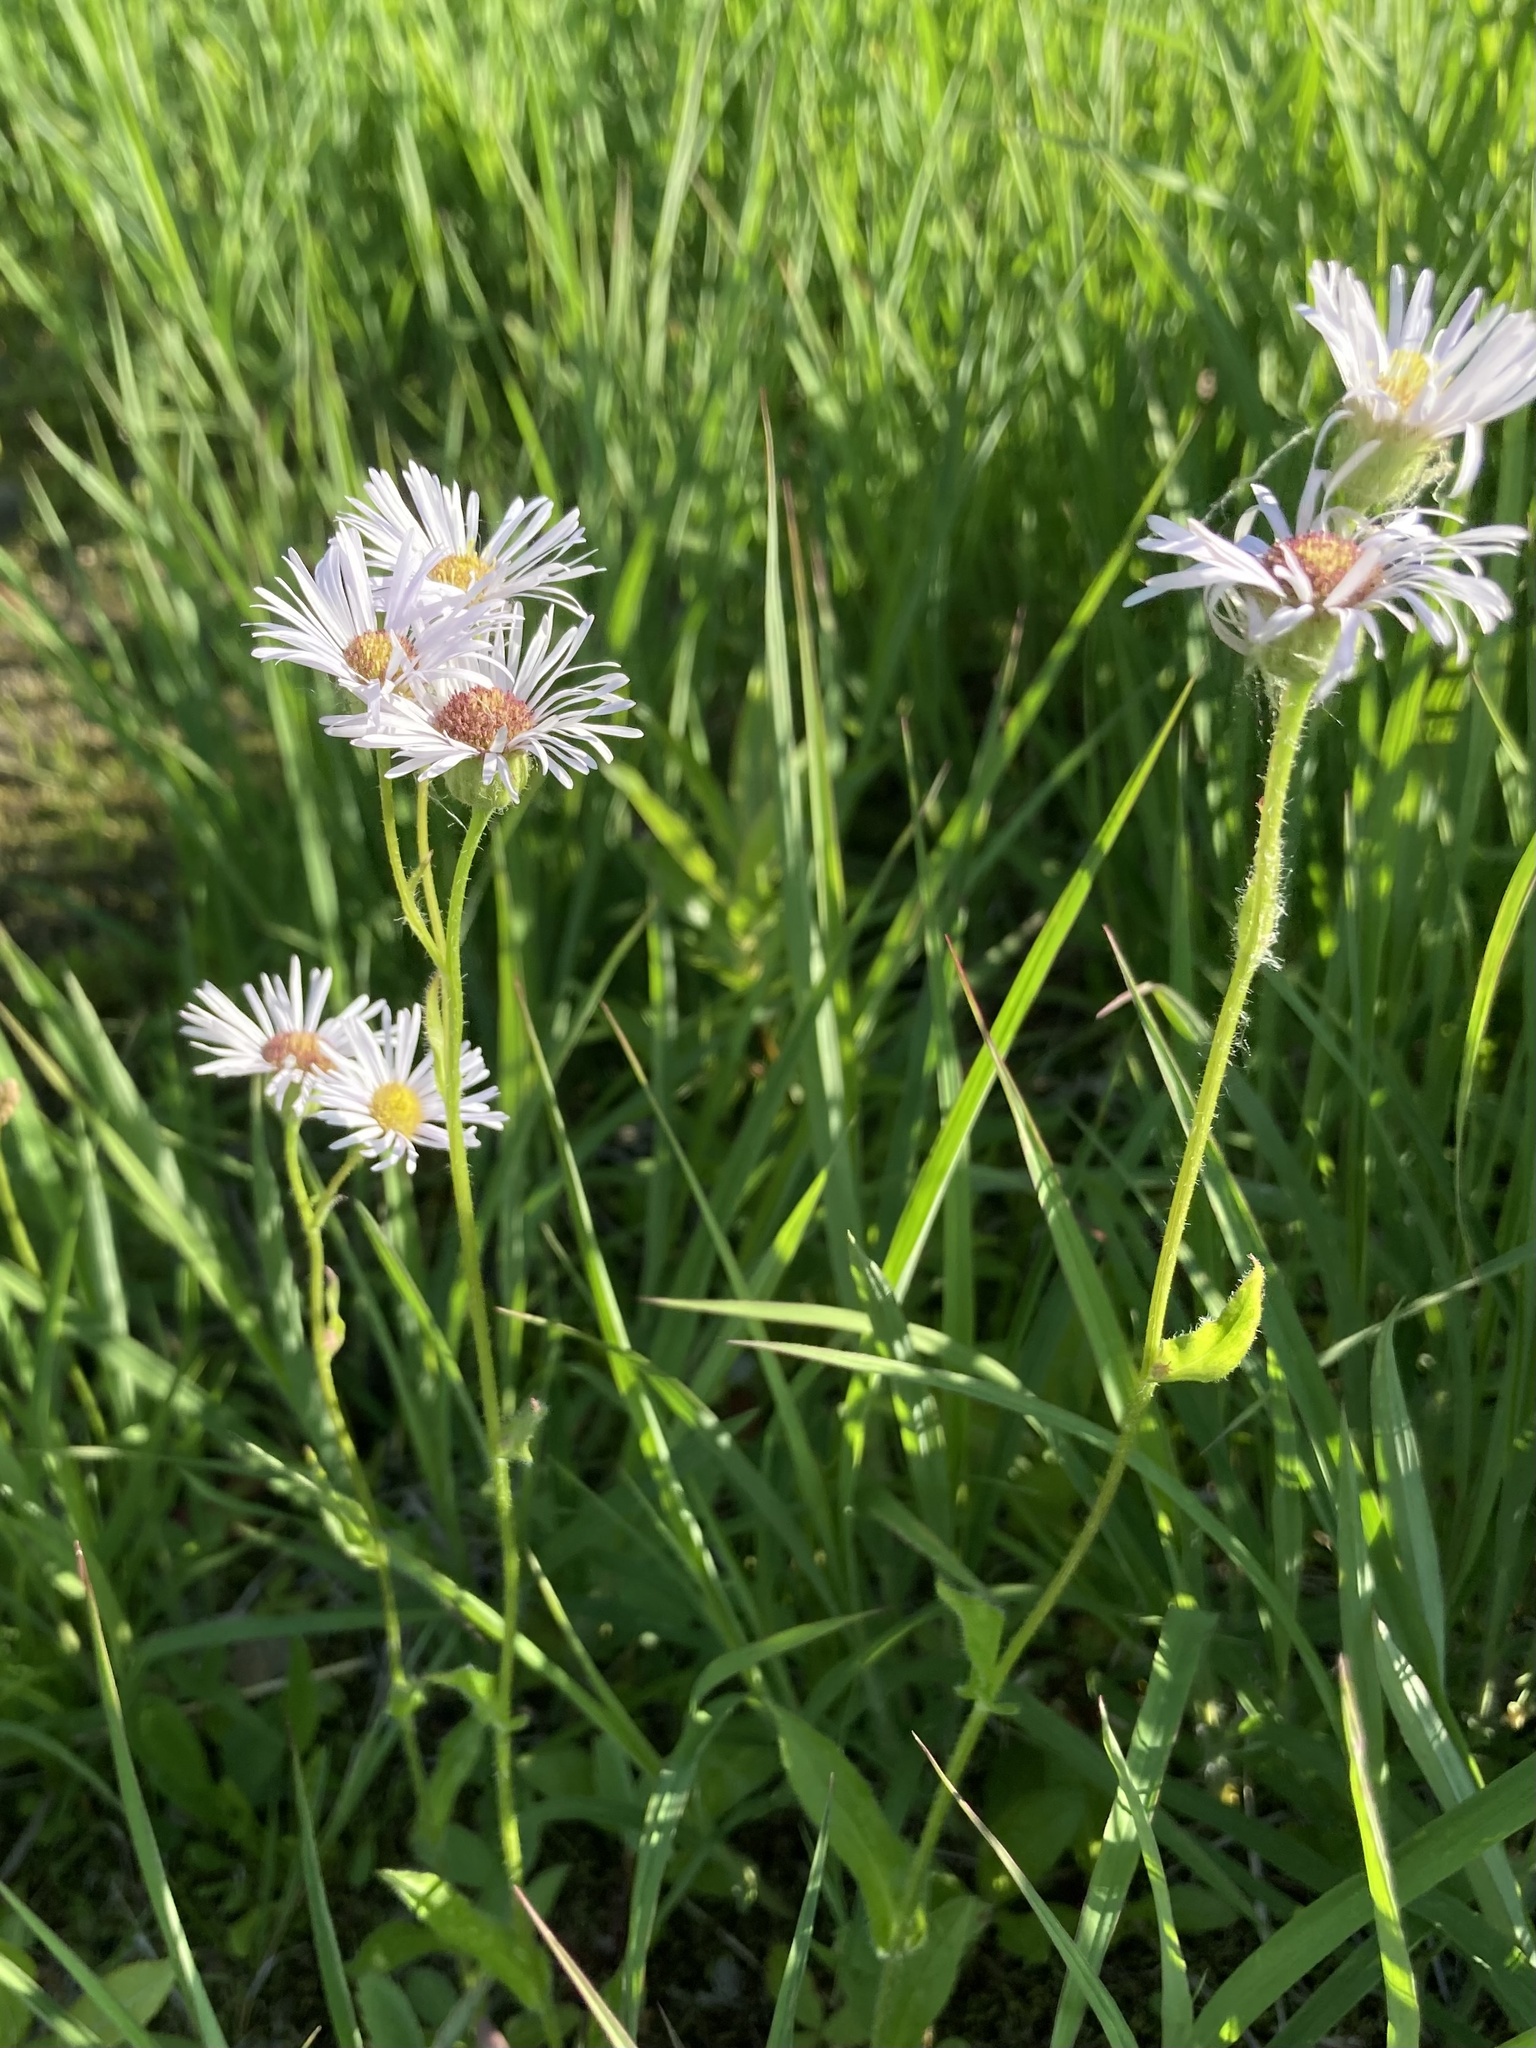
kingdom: Plantae
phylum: Tracheophyta
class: Magnoliopsida
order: Asterales
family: Asteraceae
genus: Erigeron
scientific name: Erigeron pulchellus
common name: Hairy fleabane
